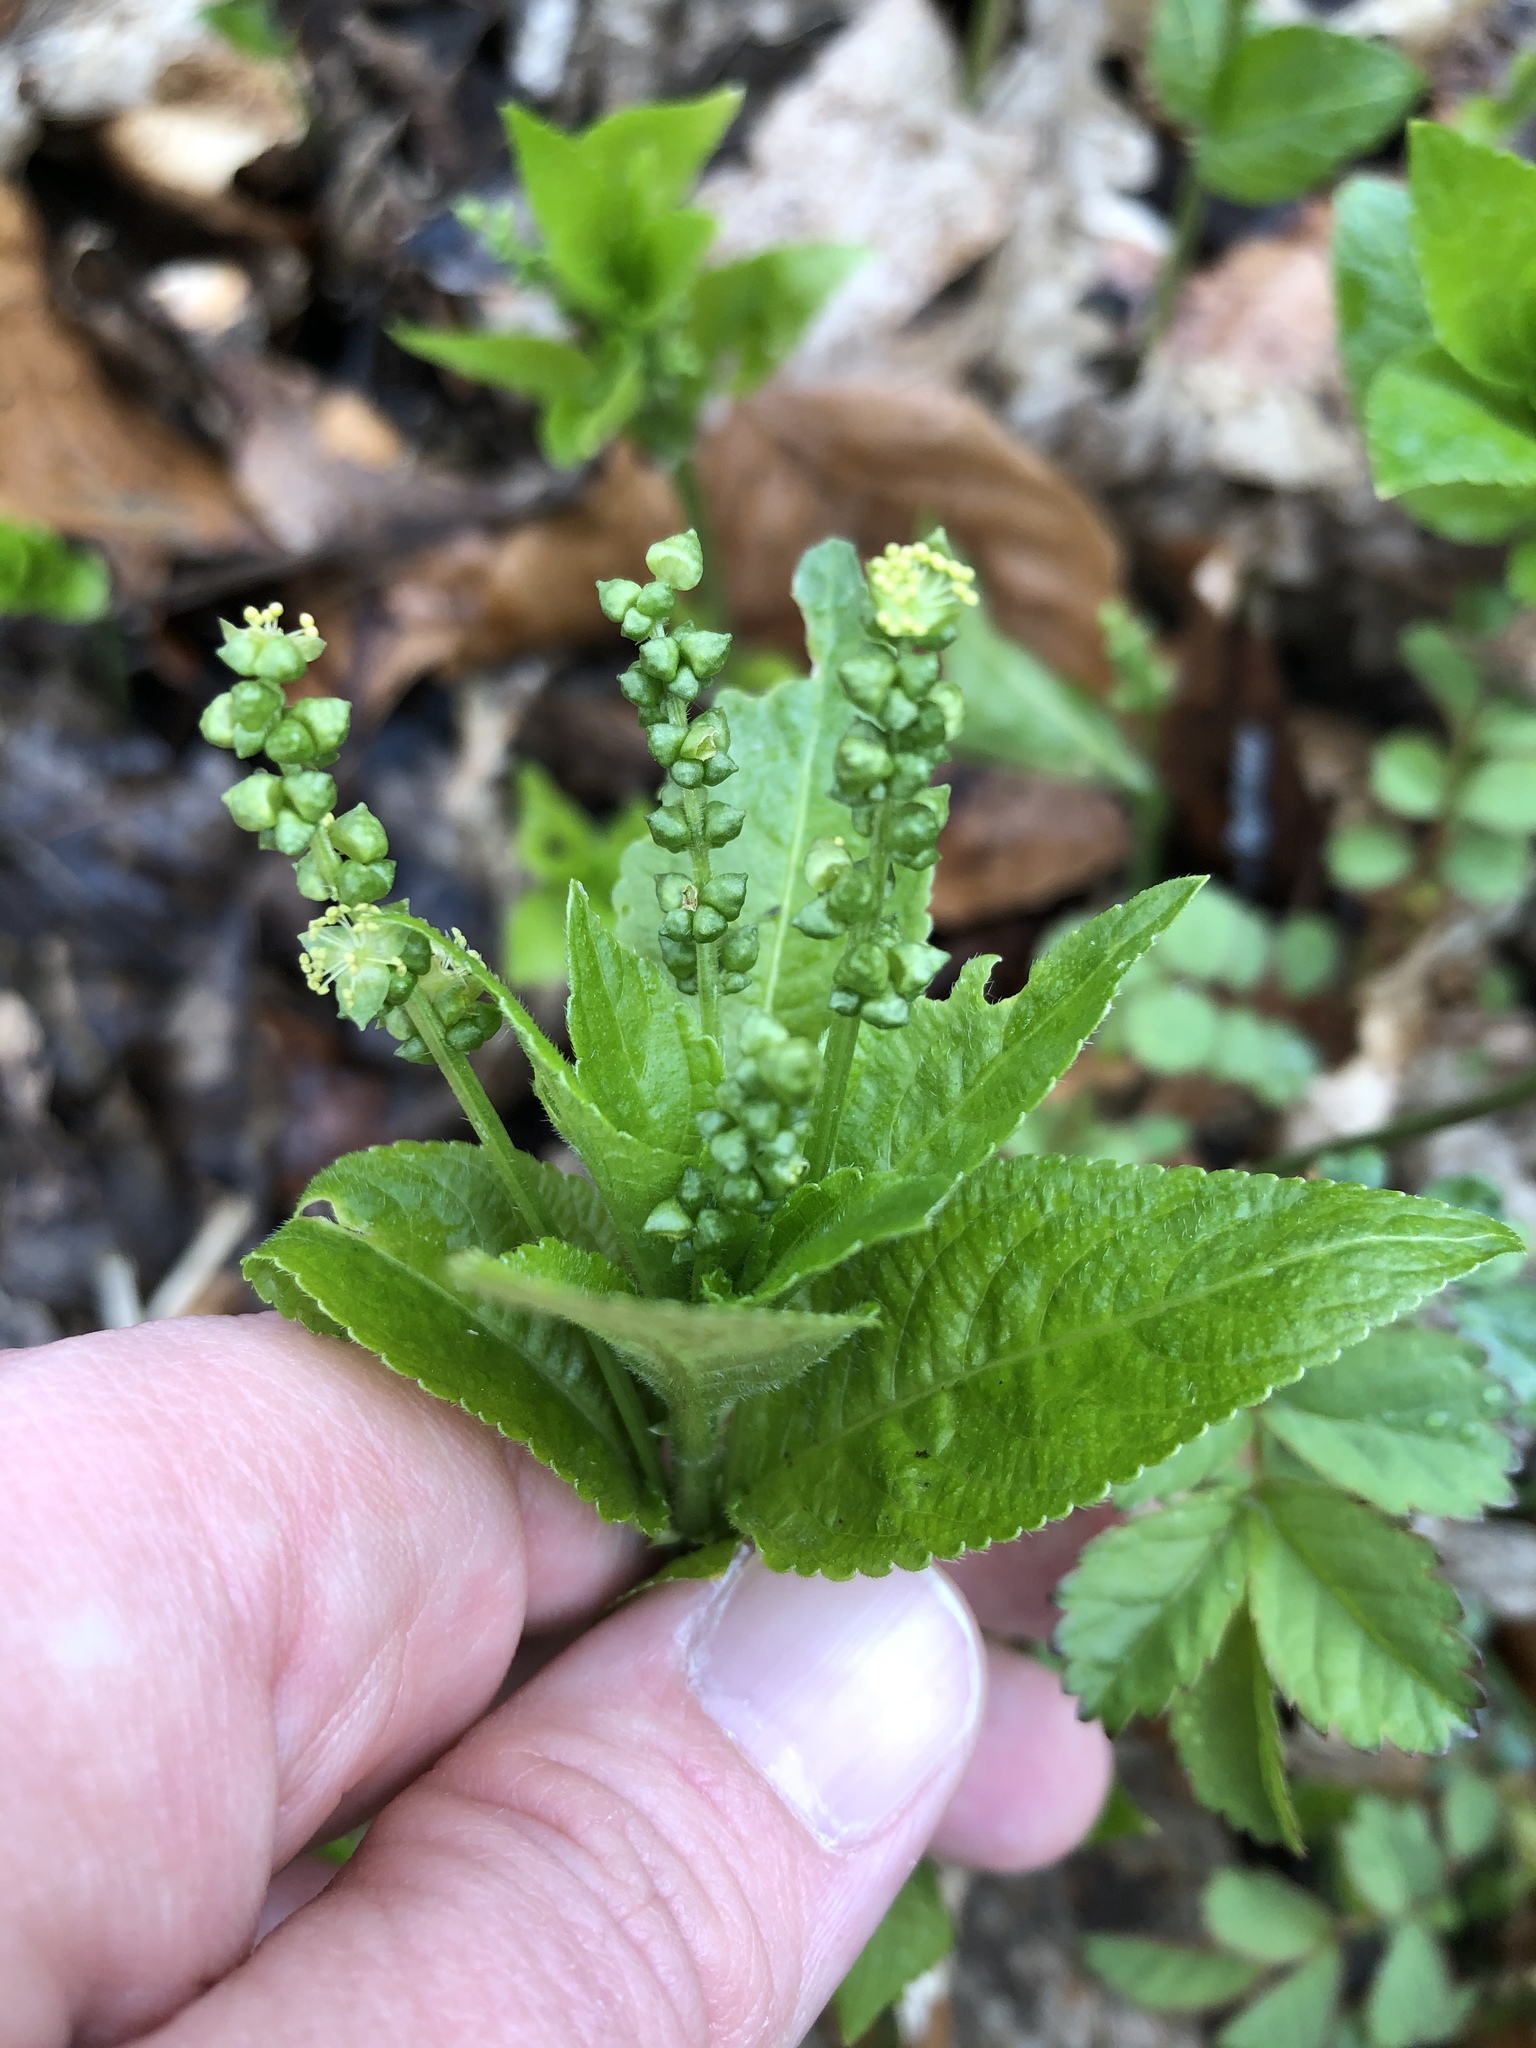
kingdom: Plantae
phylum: Tracheophyta
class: Magnoliopsida
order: Malpighiales
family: Euphorbiaceae
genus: Mercurialis
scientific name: Mercurialis perennis
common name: Dog mercury
